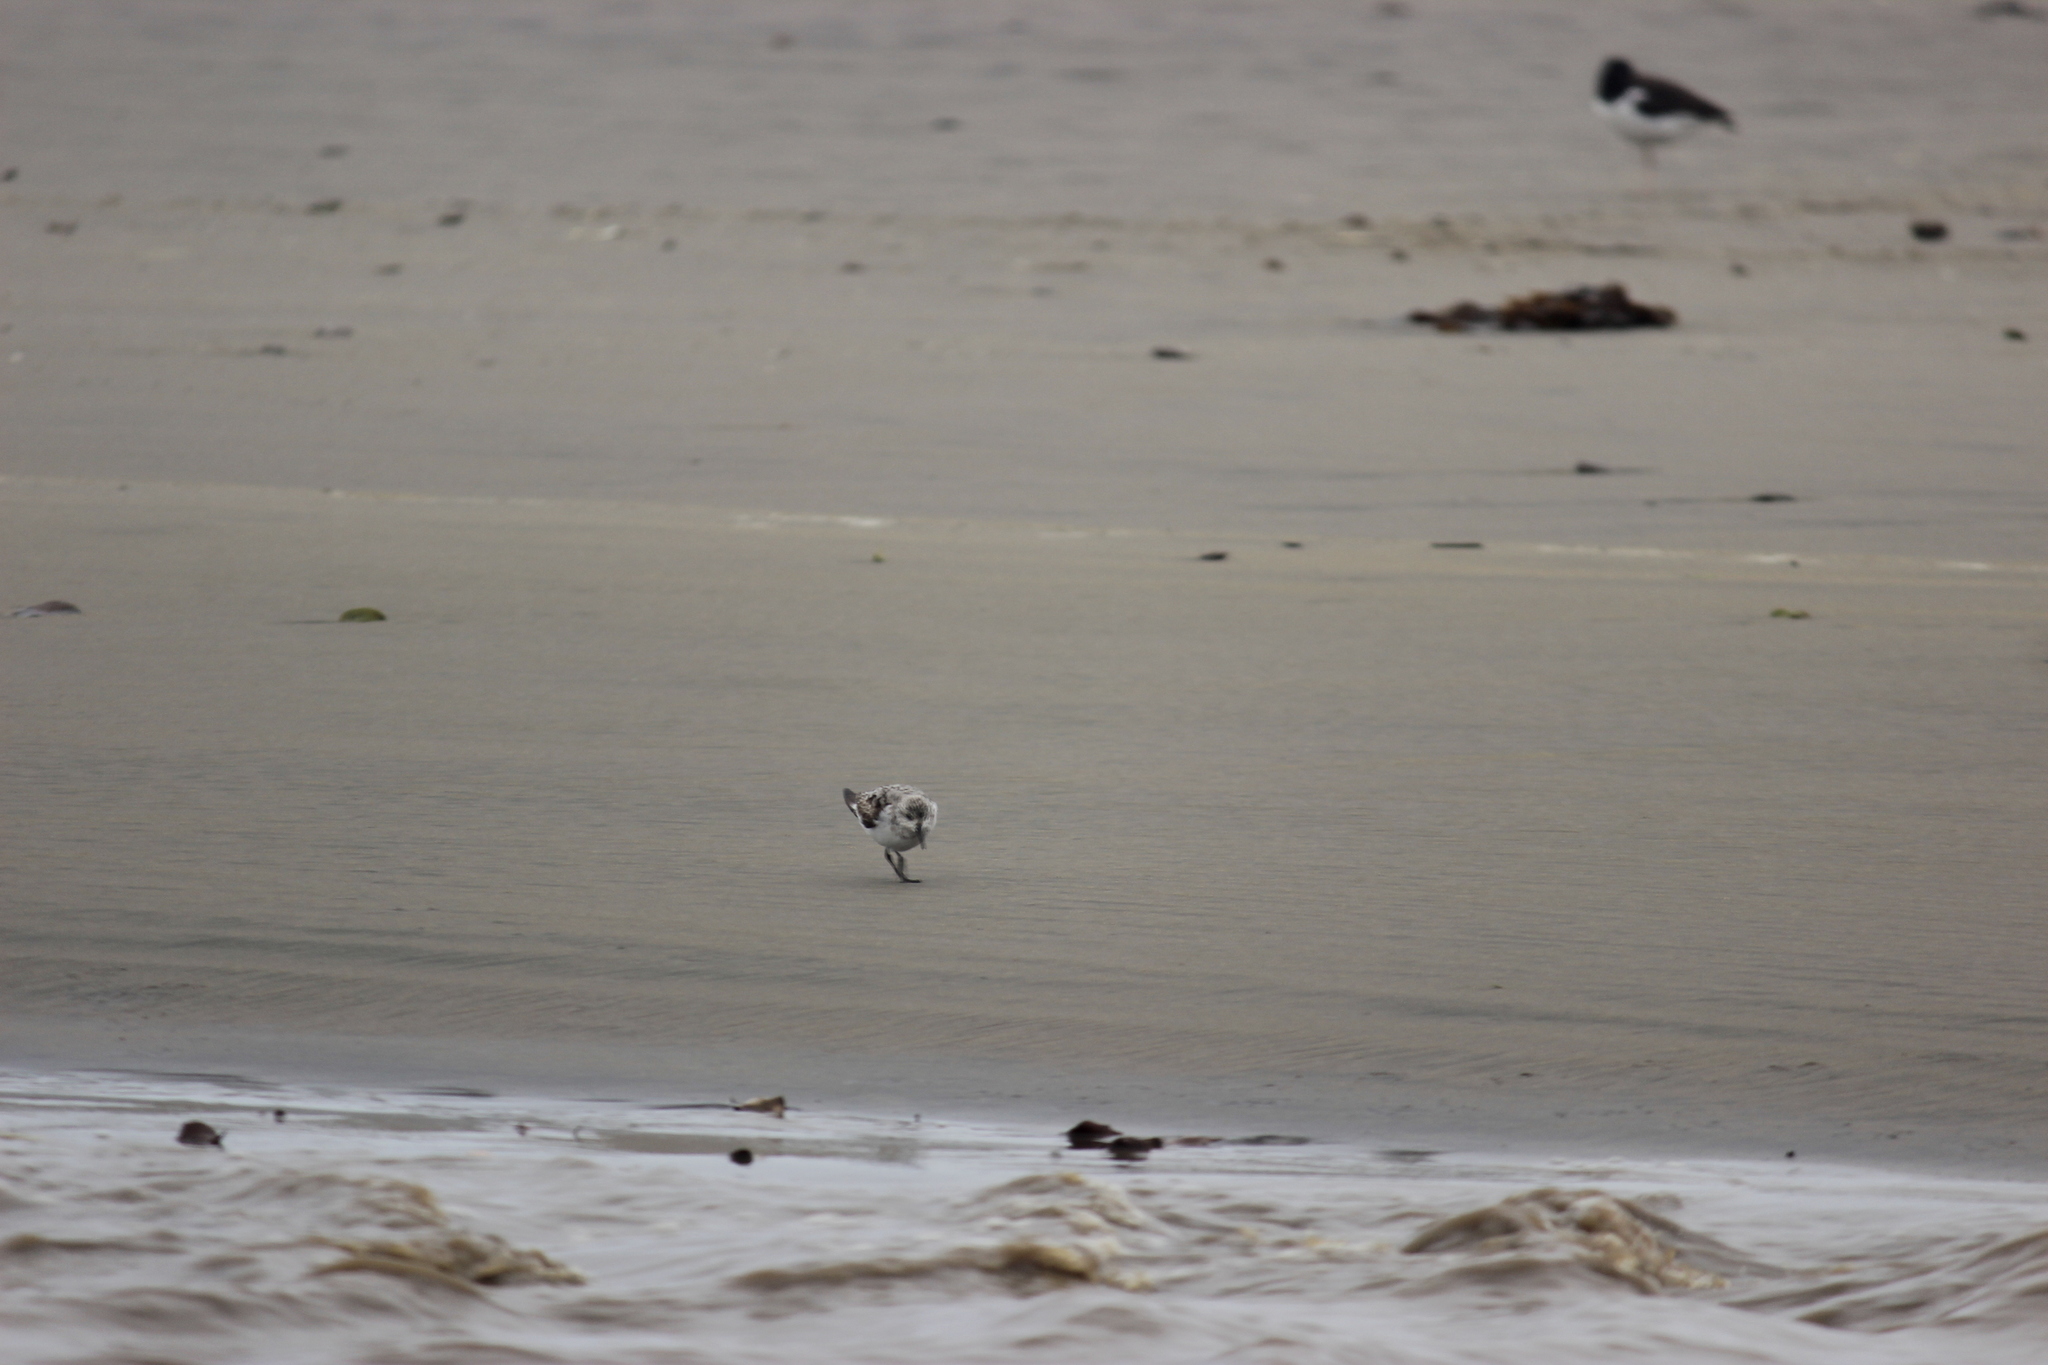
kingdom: Animalia
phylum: Chordata
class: Aves
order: Charadriiformes
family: Scolopacidae
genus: Calidris
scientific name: Calidris alba
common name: Sanderling
